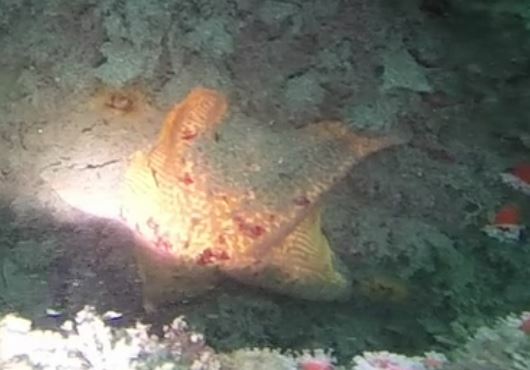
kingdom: Animalia
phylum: Echinodermata
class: Asteroidea
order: Valvatida
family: Asterinidae
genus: Patiria
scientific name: Patiria miniata
